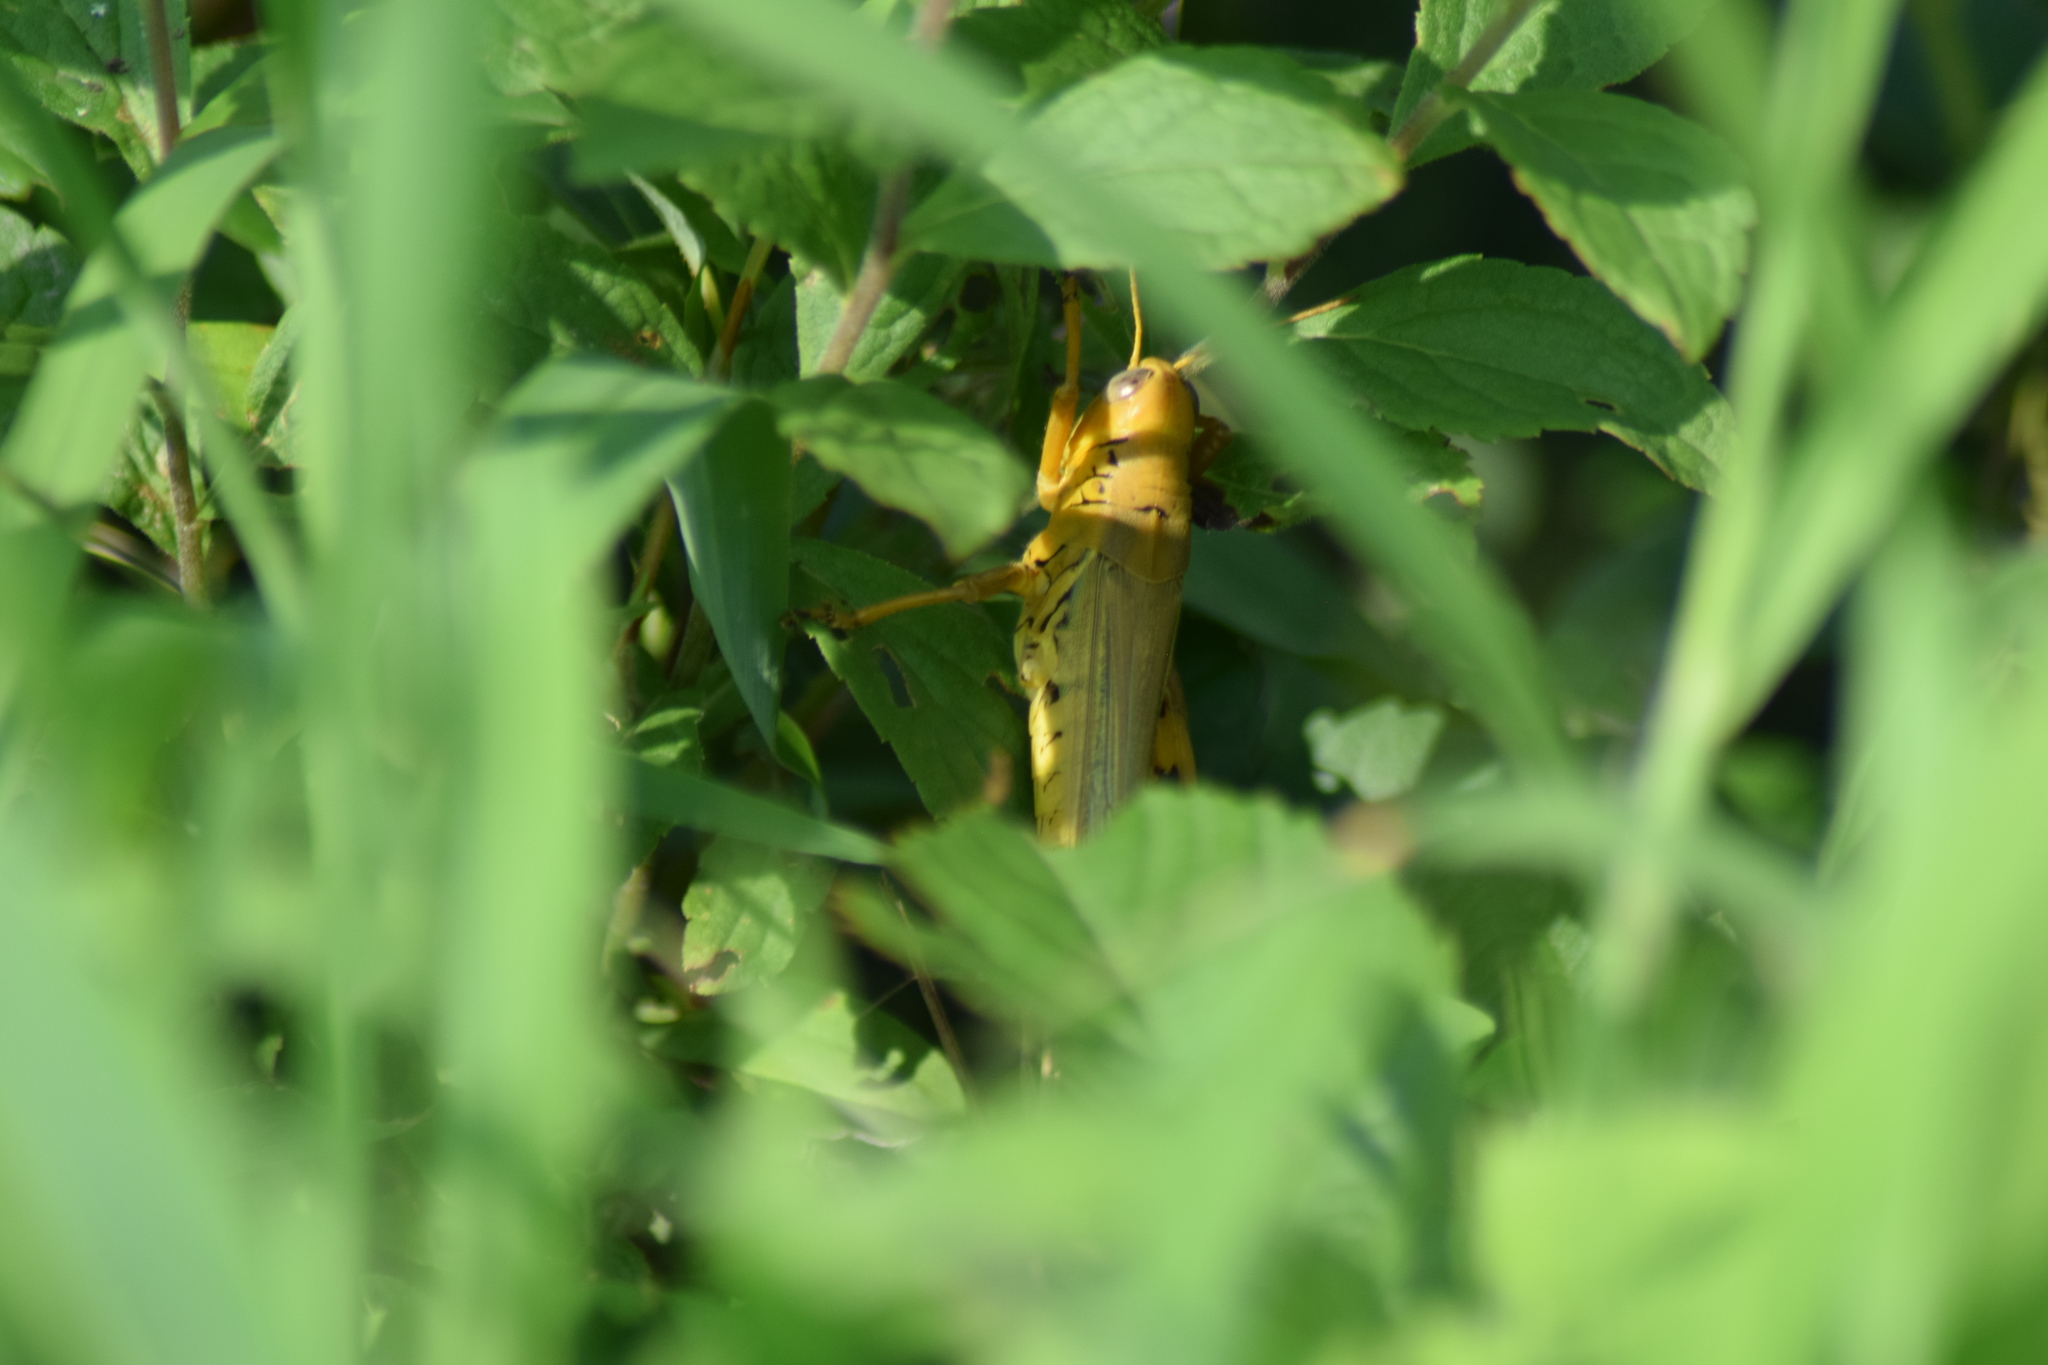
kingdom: Animalia
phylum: Arthropoda
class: Insecta
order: Orthoptera
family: Acrididae
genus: Melanoplus
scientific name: Melanoplus differentialis
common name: Differential grasshopper
